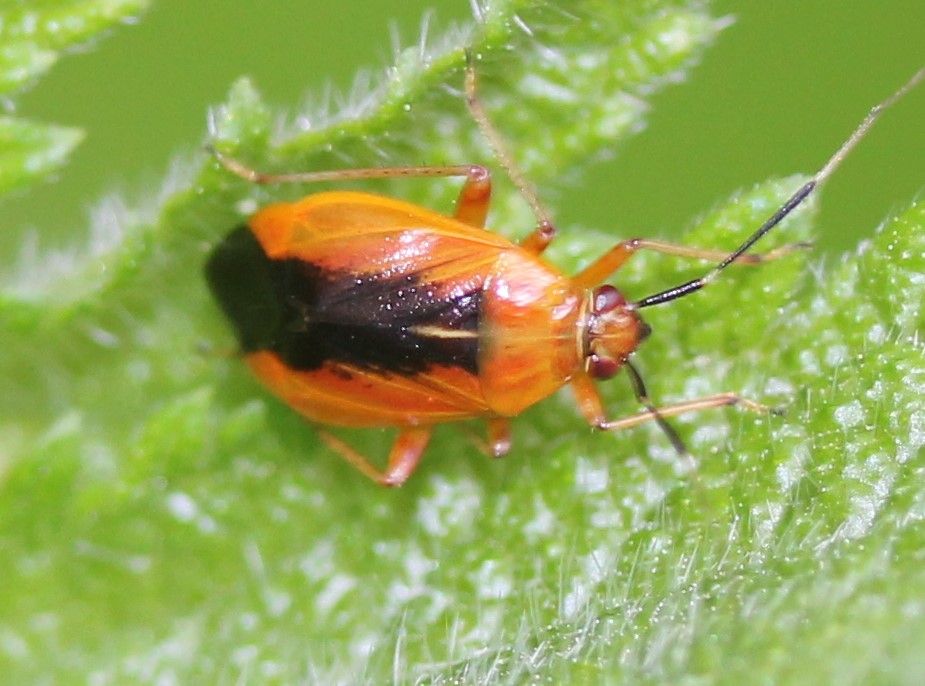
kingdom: Animalia
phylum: Arthropoda
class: Insecta
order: Hemiptera
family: Miridae
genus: Metriorrhynchomiris
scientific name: Metriorrhynchomiris dislocatus
